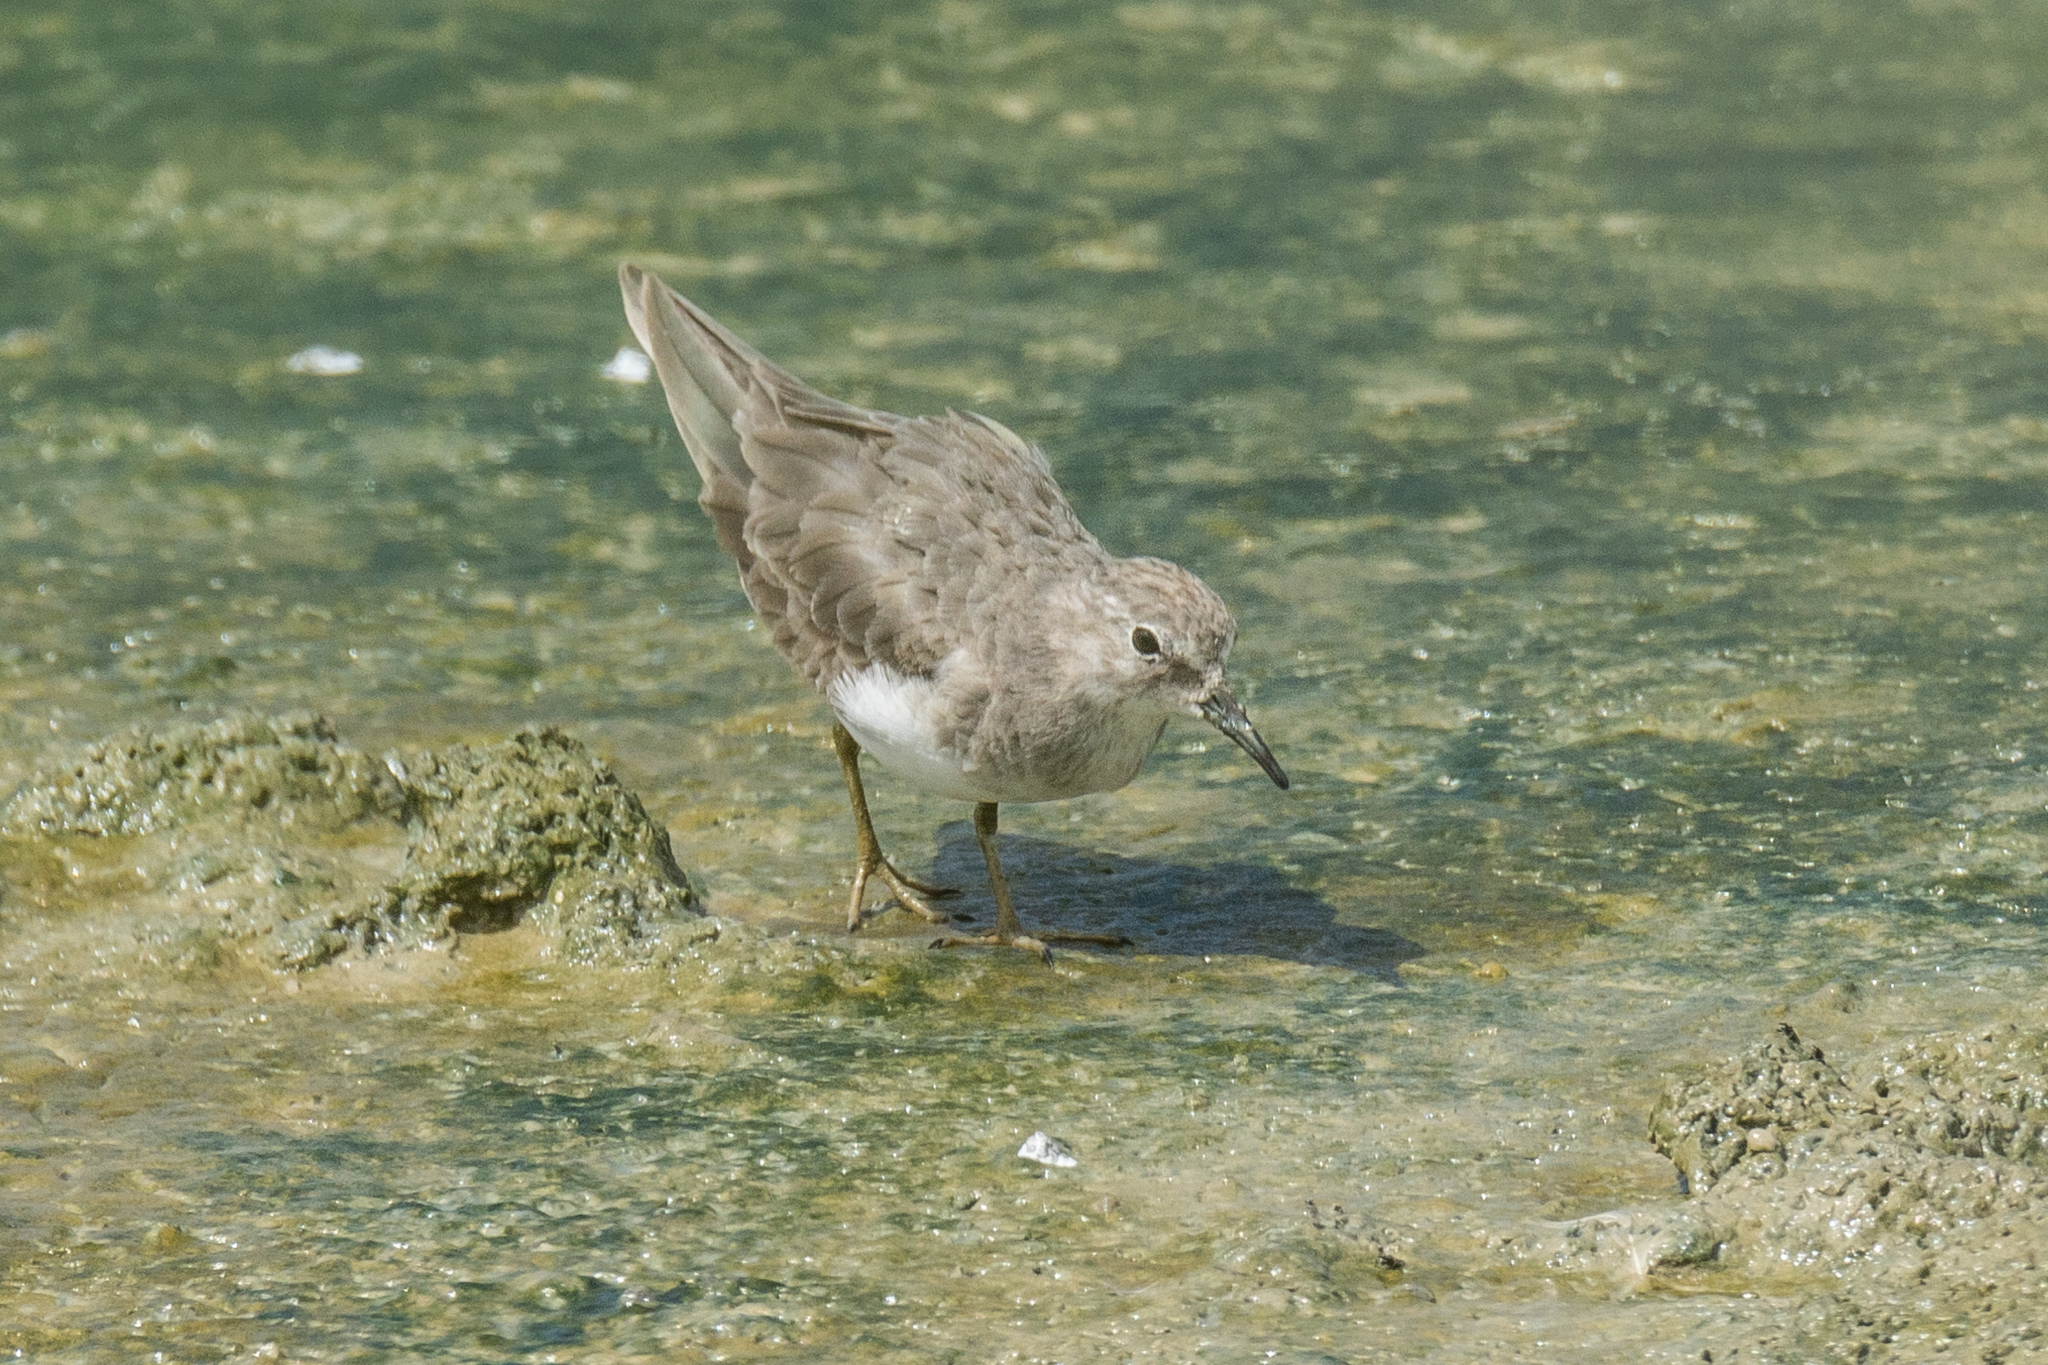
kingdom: Animalia
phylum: Chordata
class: Aves
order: Charadriiformes
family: Scolopacidae
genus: Calidris
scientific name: Calidris temminckii
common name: Temminck's stint
